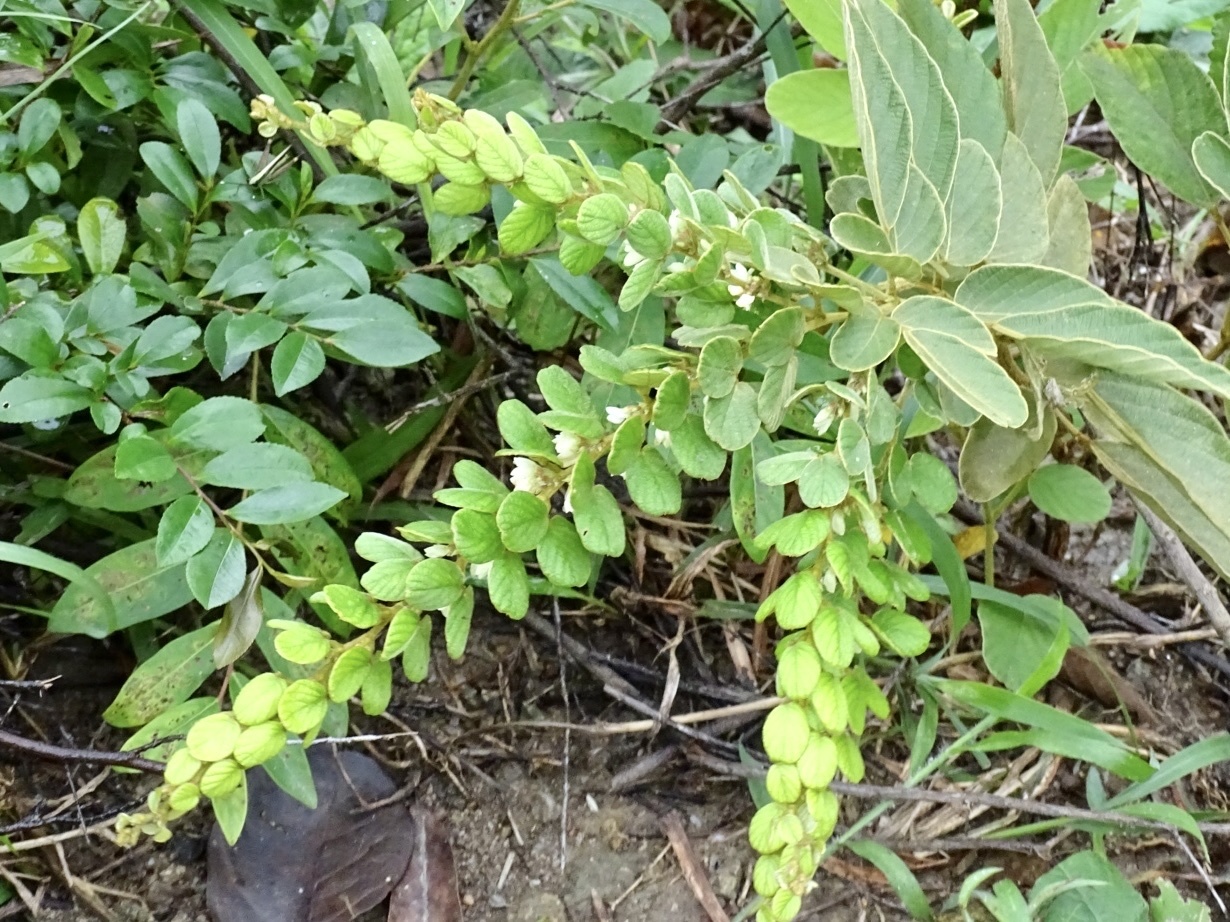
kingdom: Plantae
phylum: Tracheophyta
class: Magnoliopsida
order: Fabales
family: Fabaceae
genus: Phyllodium
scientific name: Phyllodium pulchellum
